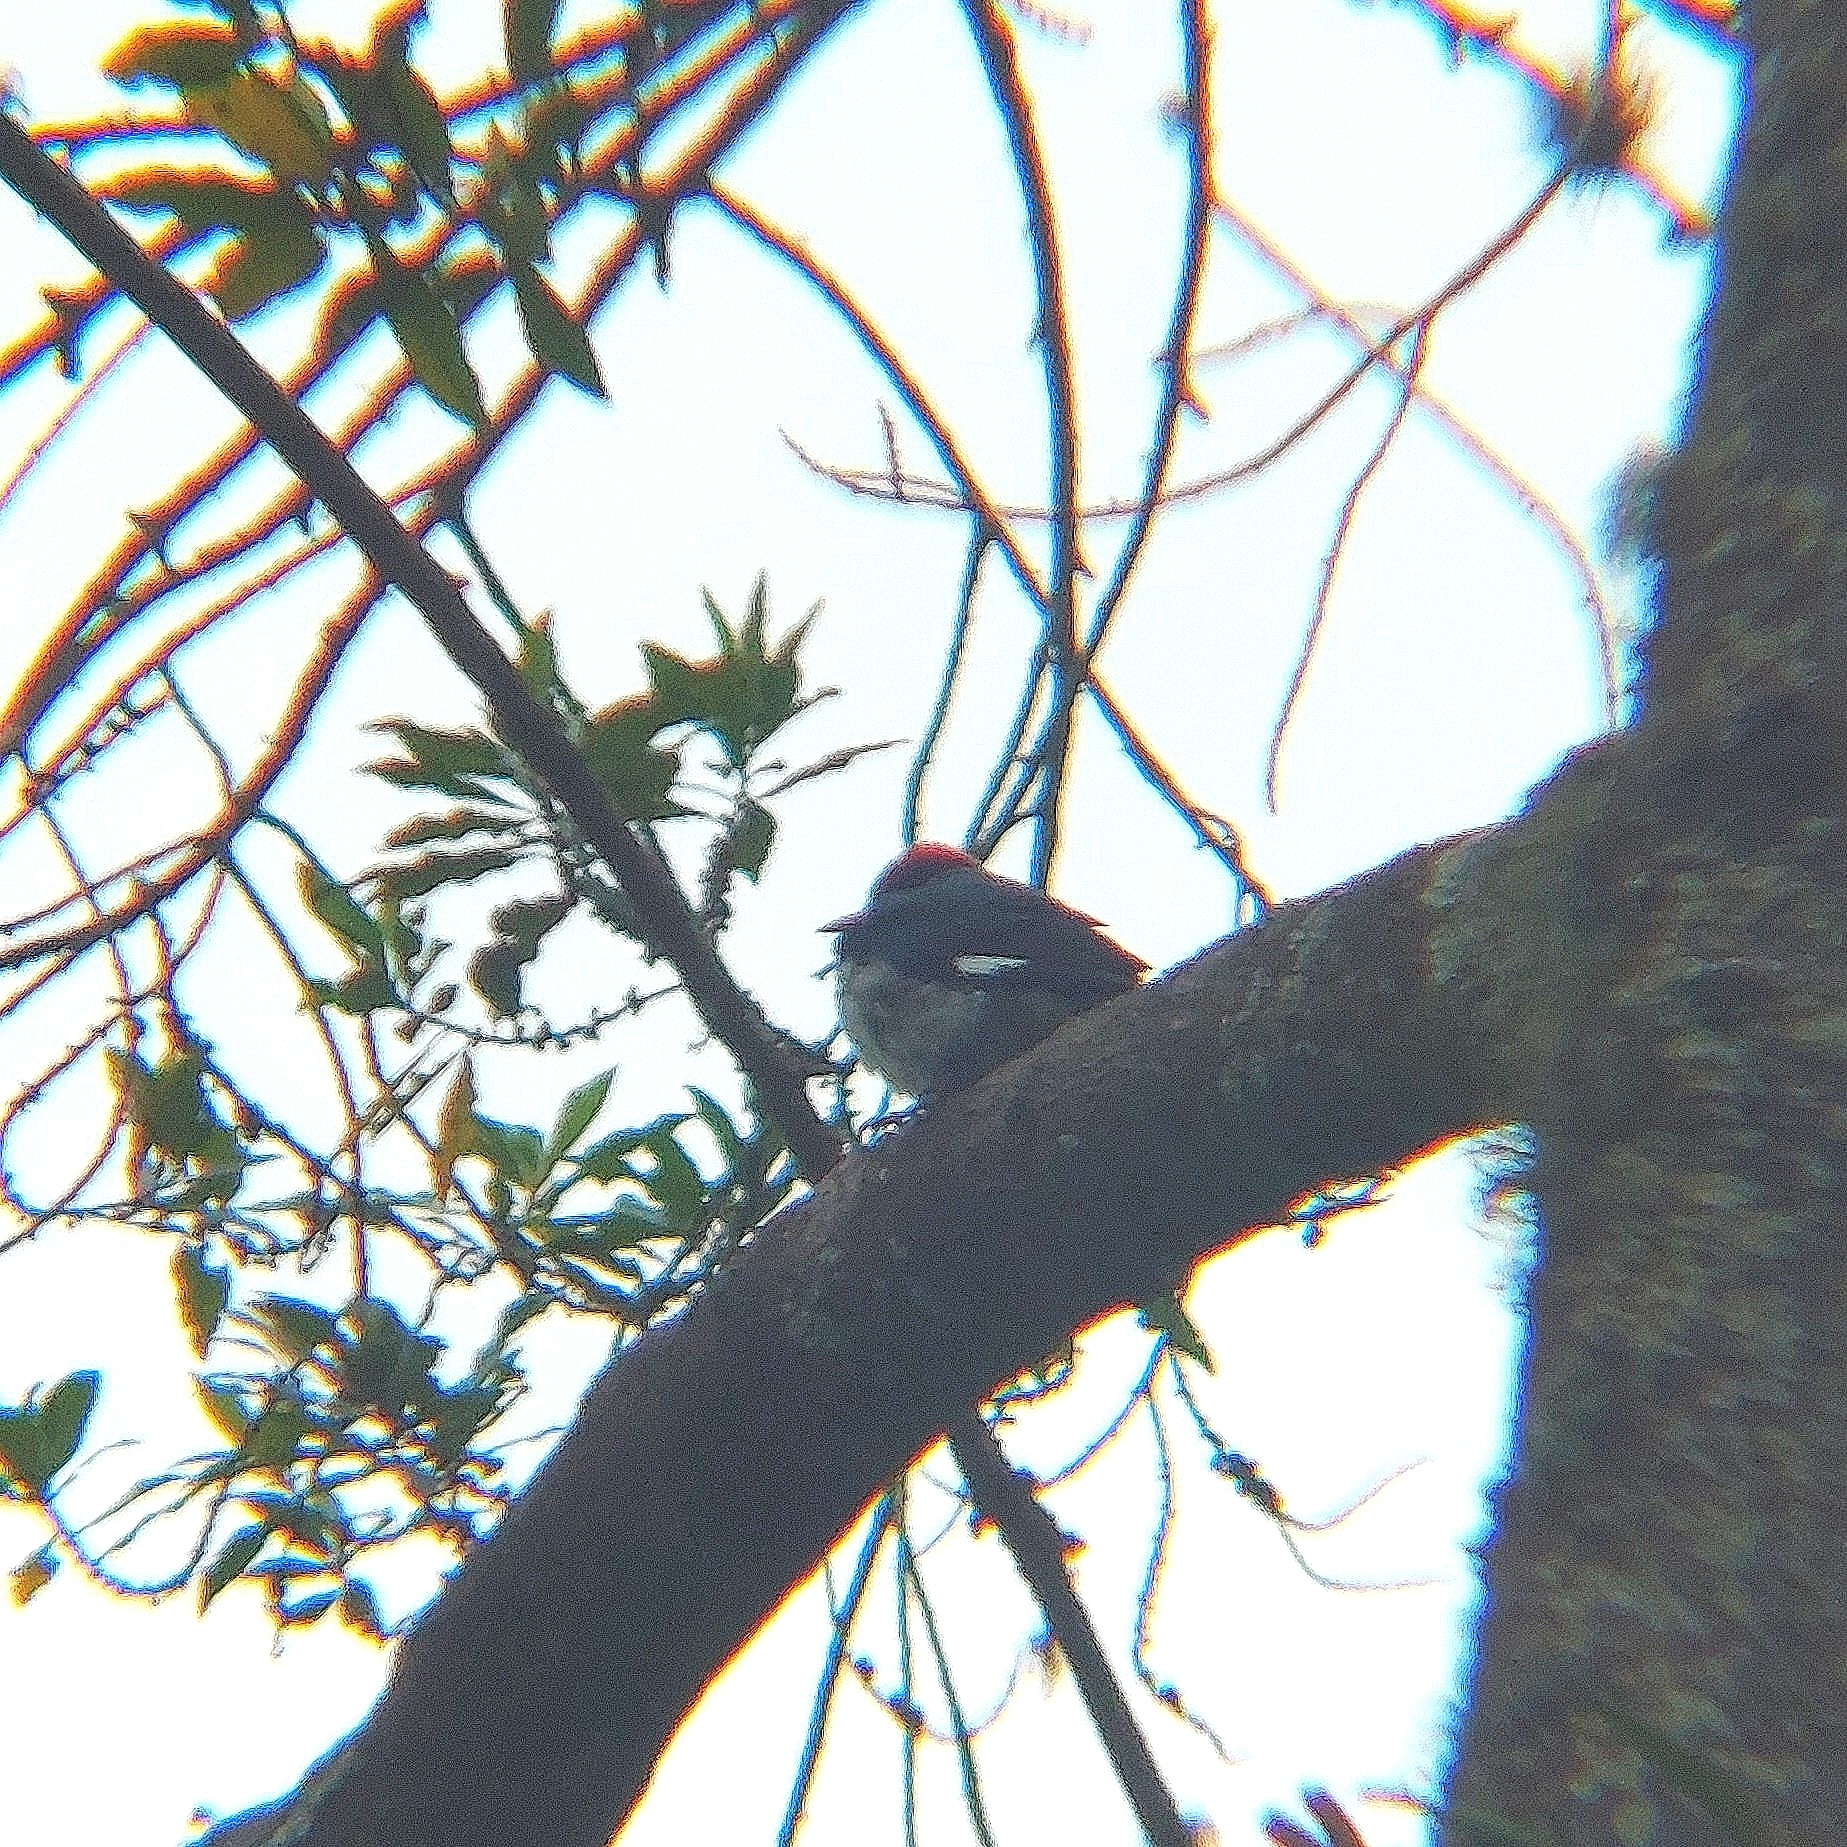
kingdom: Animalia
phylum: Chordata
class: Aves
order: Piciformes
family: Picidae
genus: Melanerpes
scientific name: Melanerpes formicivorus
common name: Acorn woodpecker
